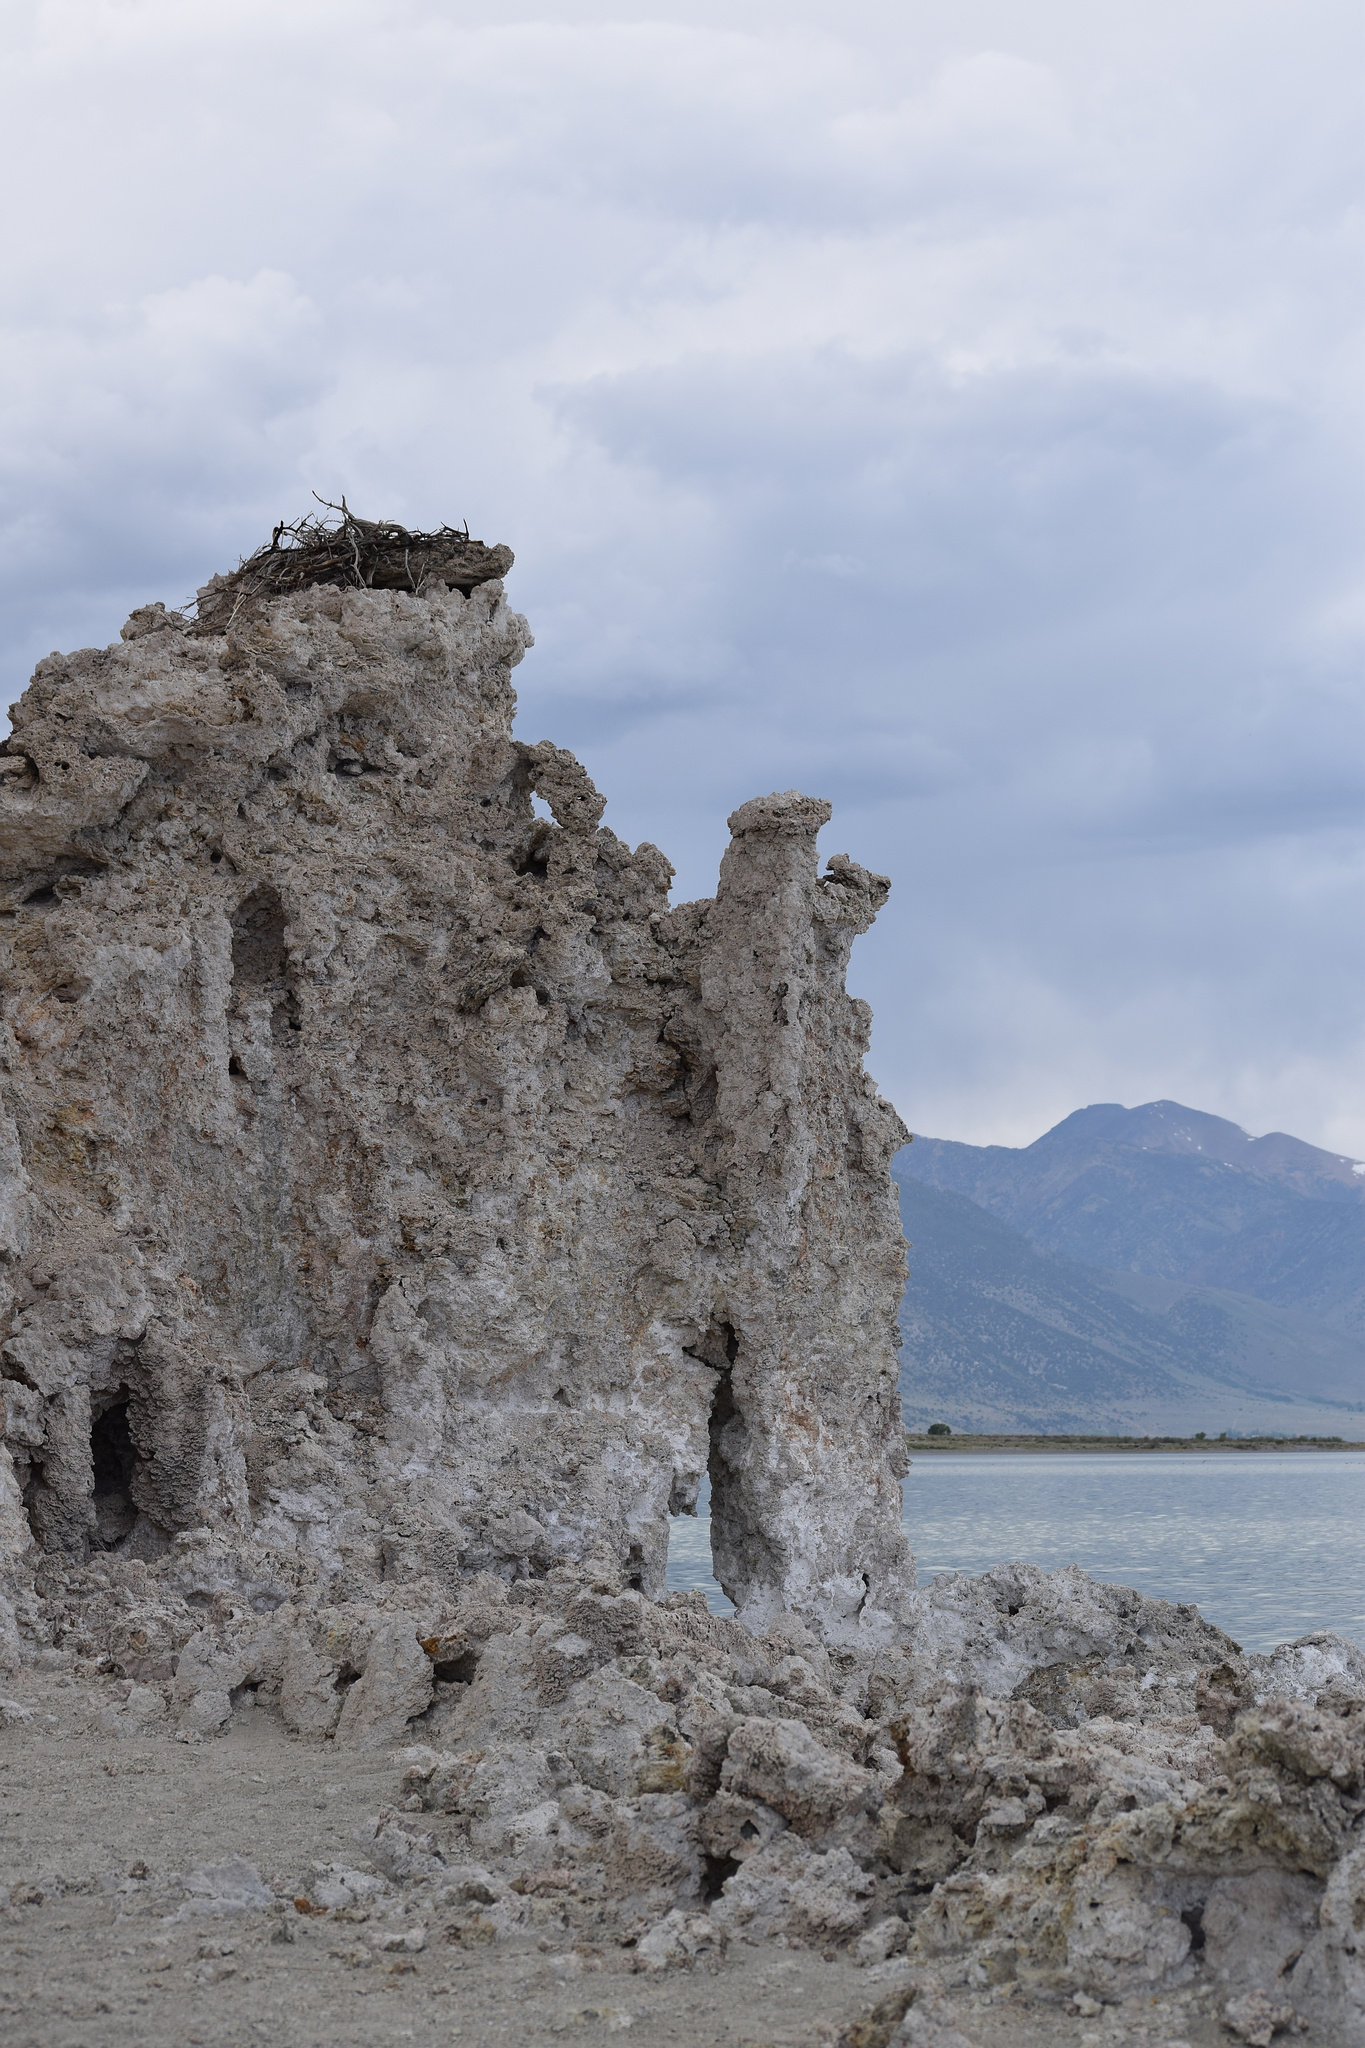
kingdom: Animalia
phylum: Chordata
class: Aves
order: Accipitriformes
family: Pandionidae
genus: Pandion
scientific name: Pandion haliaetus
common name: Osprey
